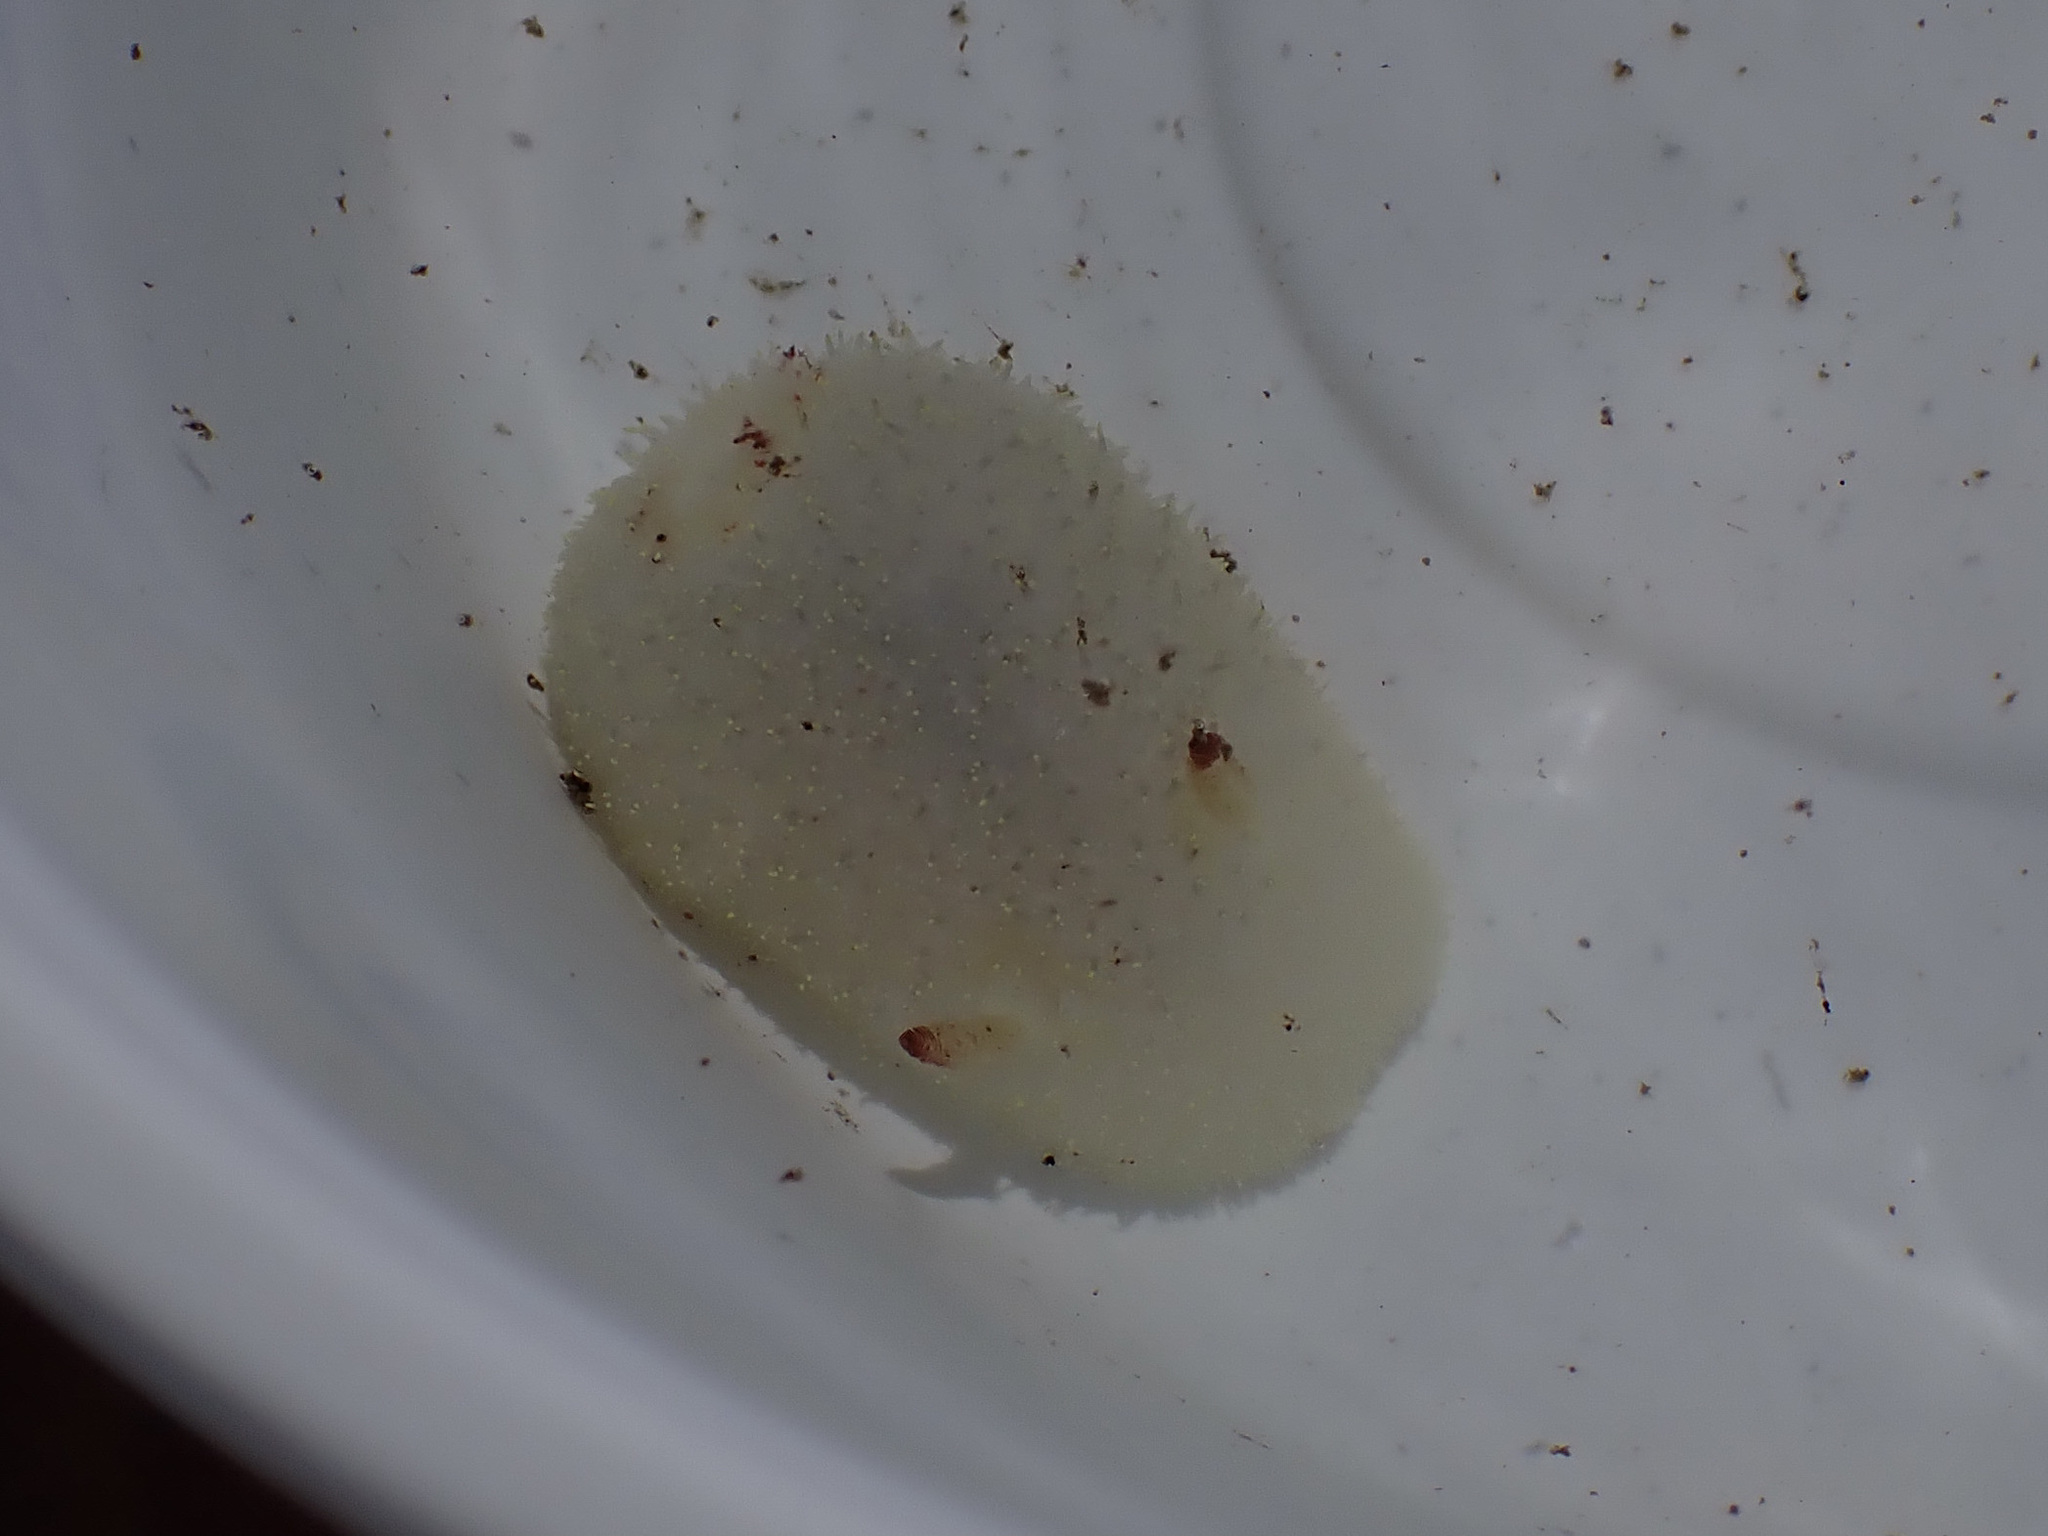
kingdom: Animalia
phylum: Mollusca
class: Gastropoda
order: Nudibranchia
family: Onchidorididae
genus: Acanthodoris
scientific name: Acanthodoris nanaimoensis
